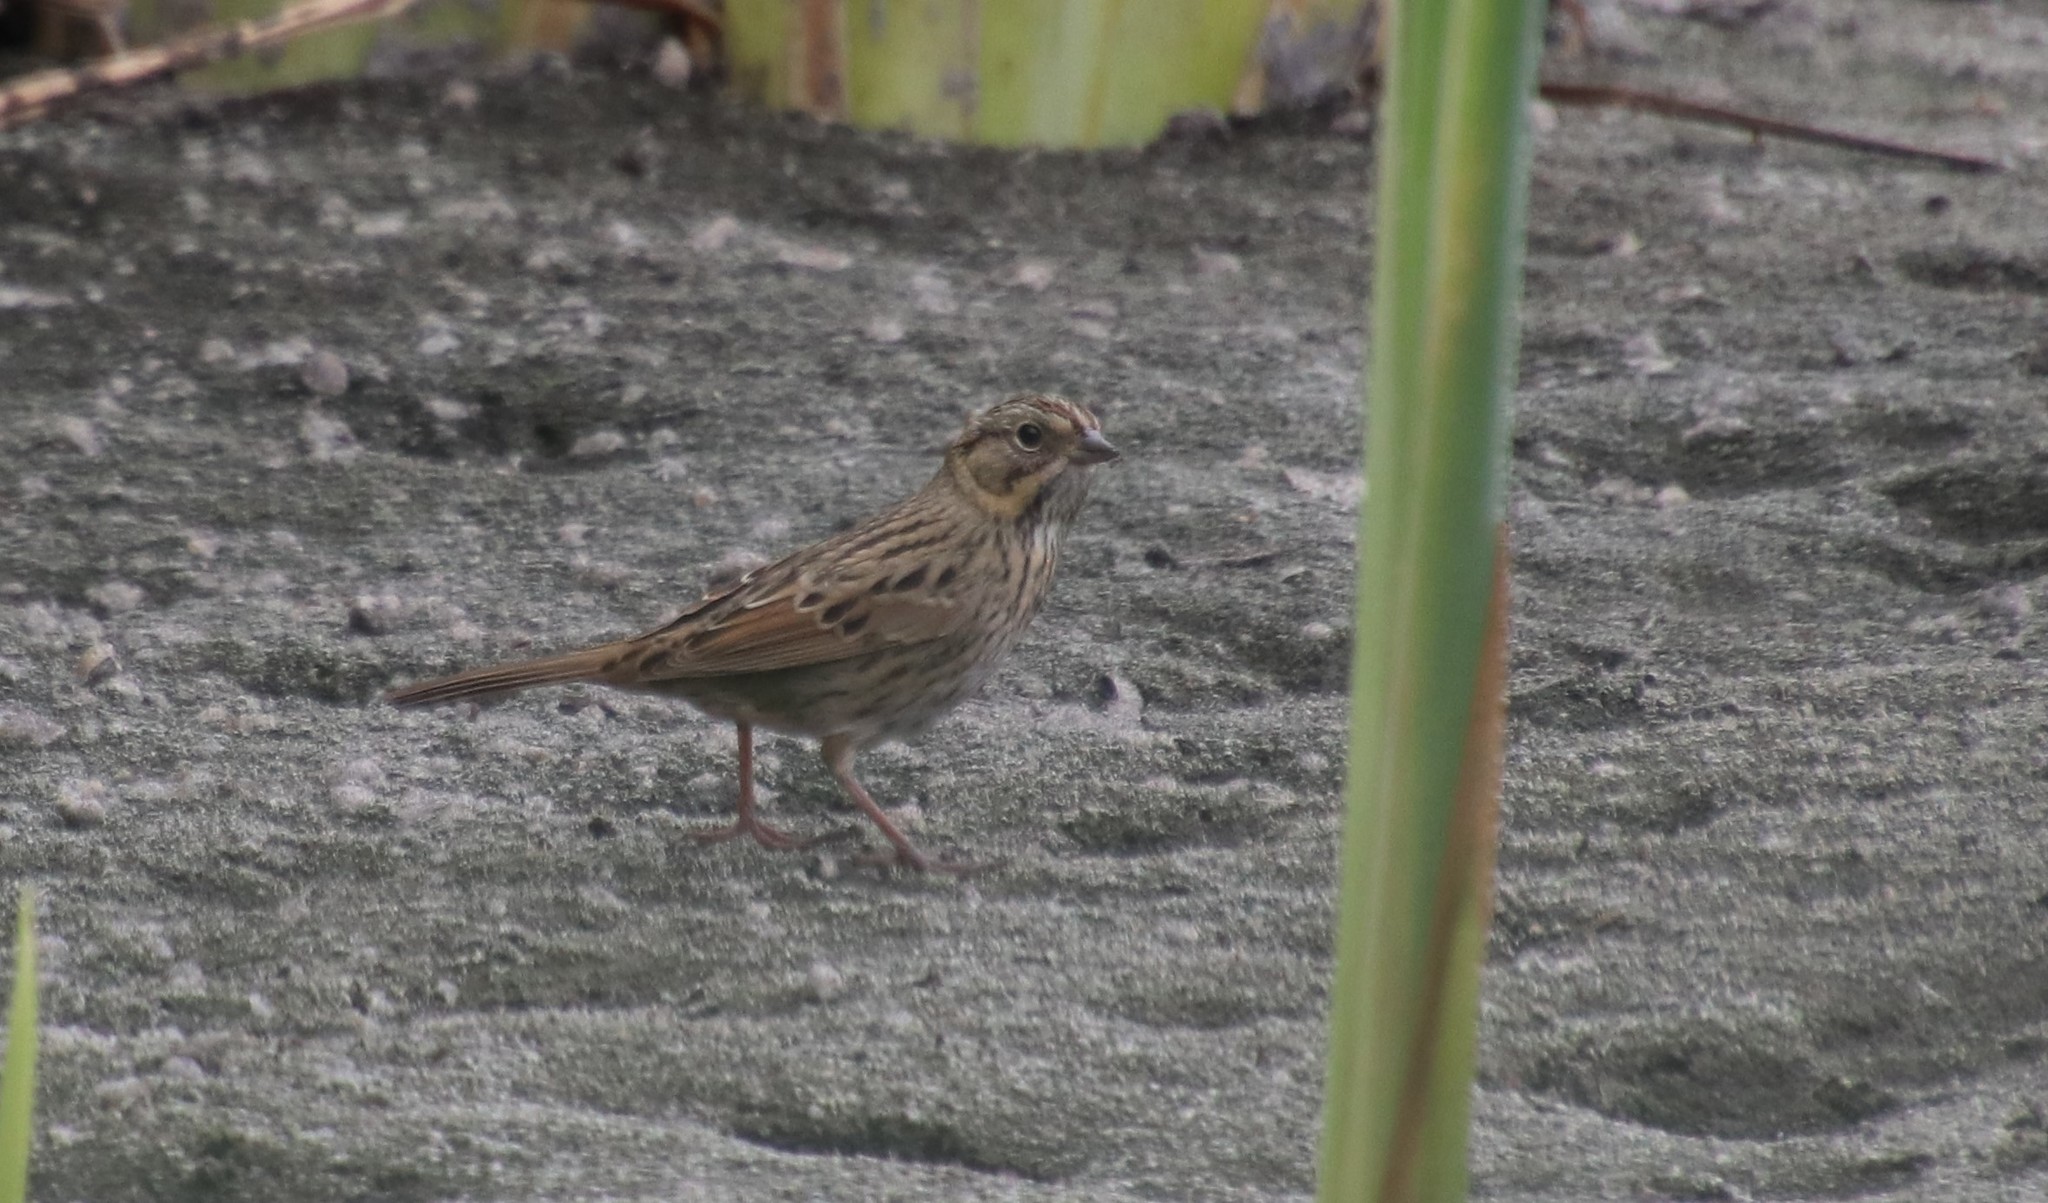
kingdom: Animalia
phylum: Chordata
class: Aves
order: Passeriformes
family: Passerellidae
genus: Melospiza
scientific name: Melospiza lincolnii
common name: Lincoln's sparrow
